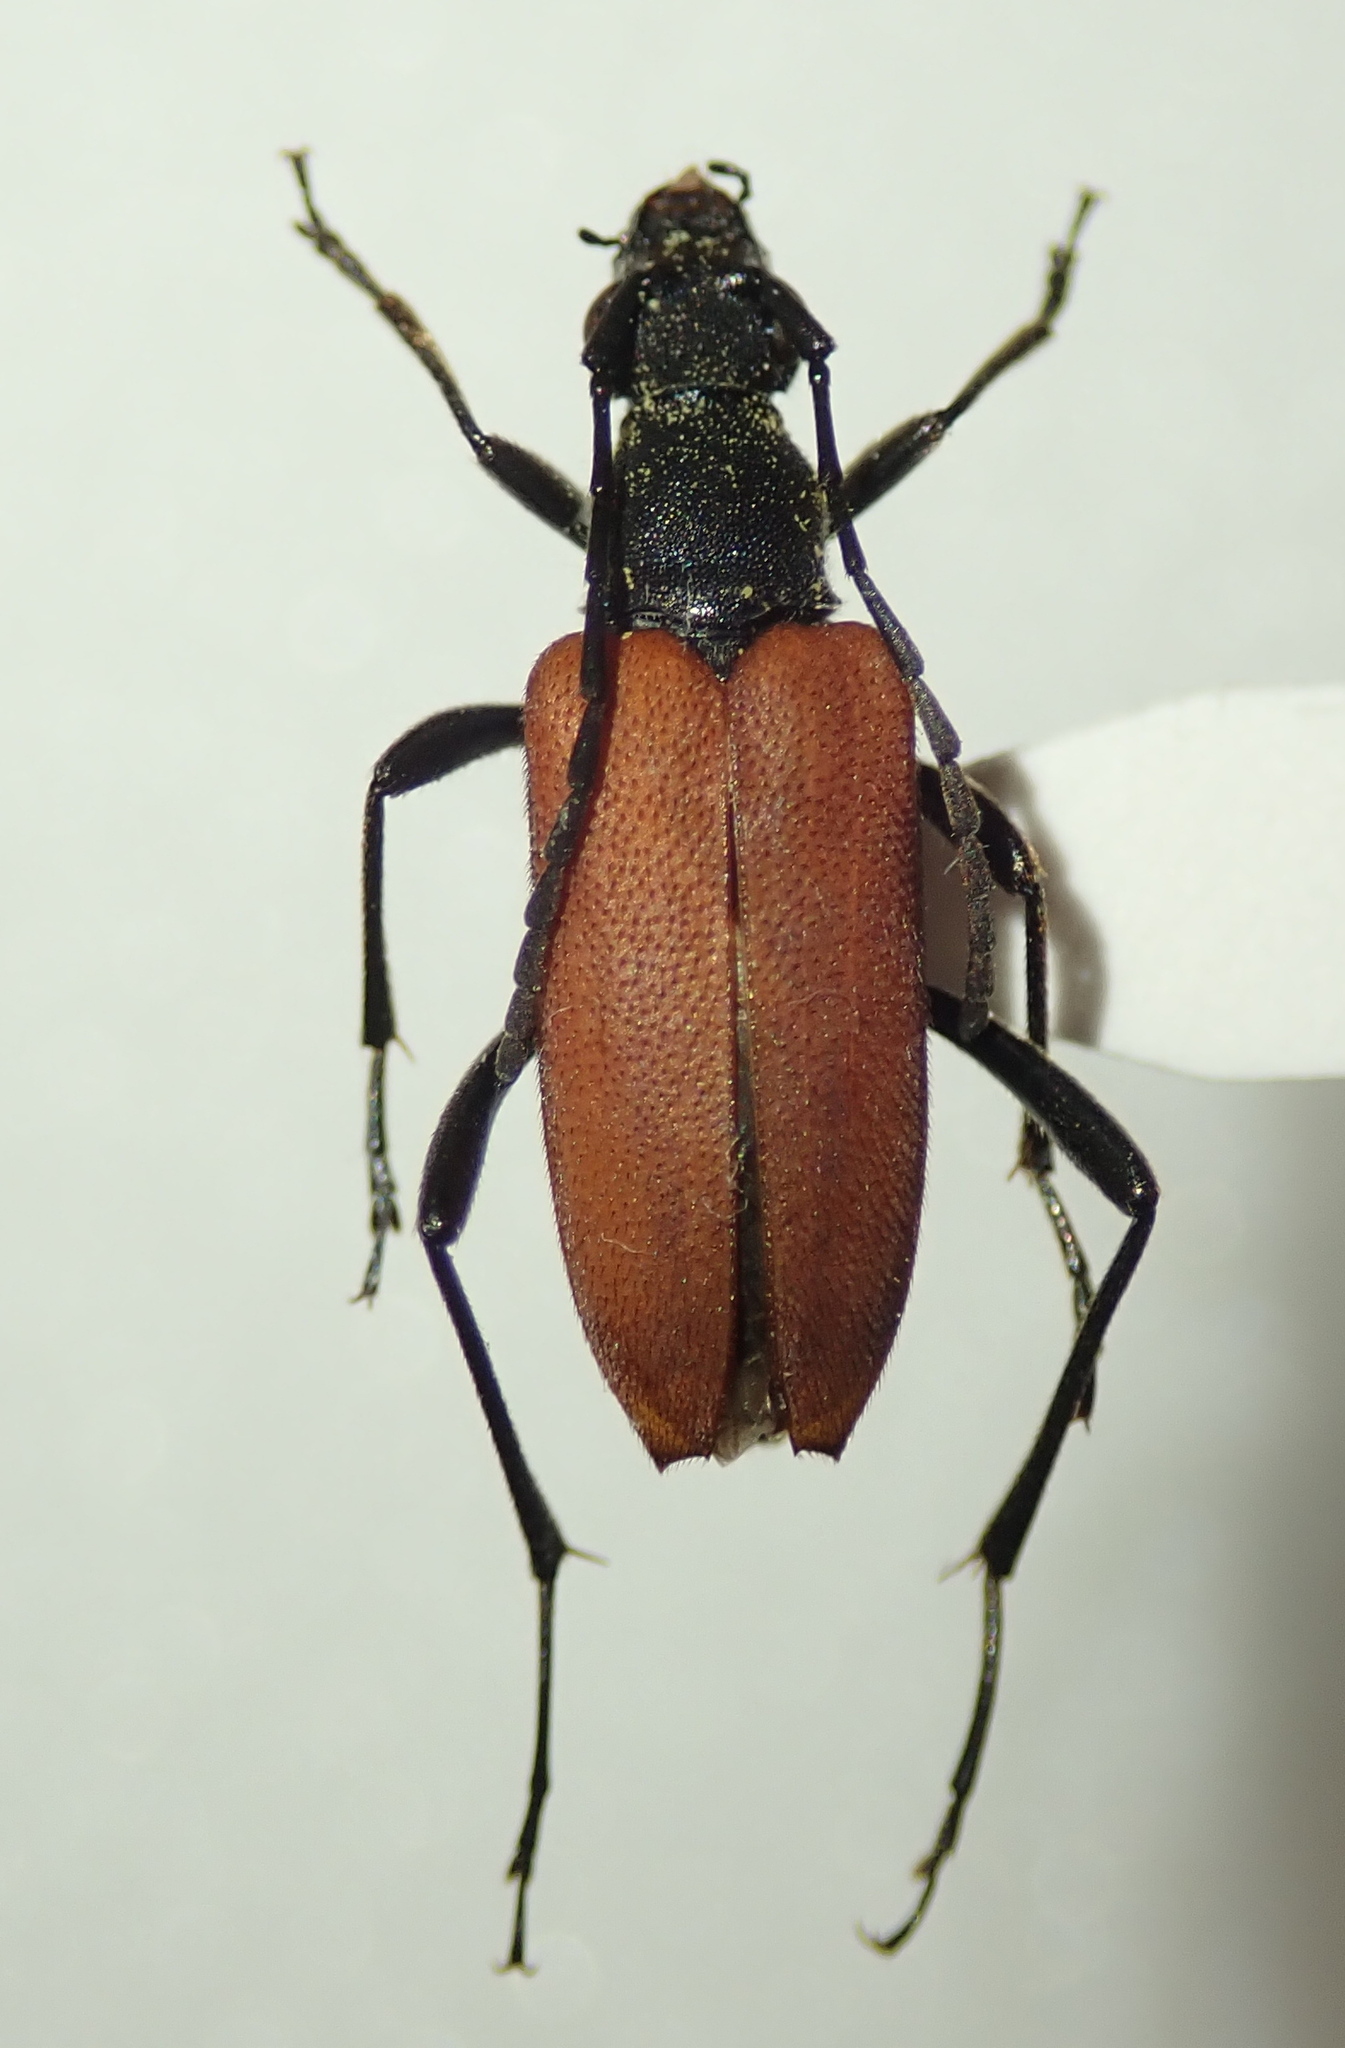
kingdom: Animalia
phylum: Arthropoda
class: Insecta
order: Coleoptera
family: Cerambycidae
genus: Anastrangalia
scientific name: Anastrangalia sanguinolenta
